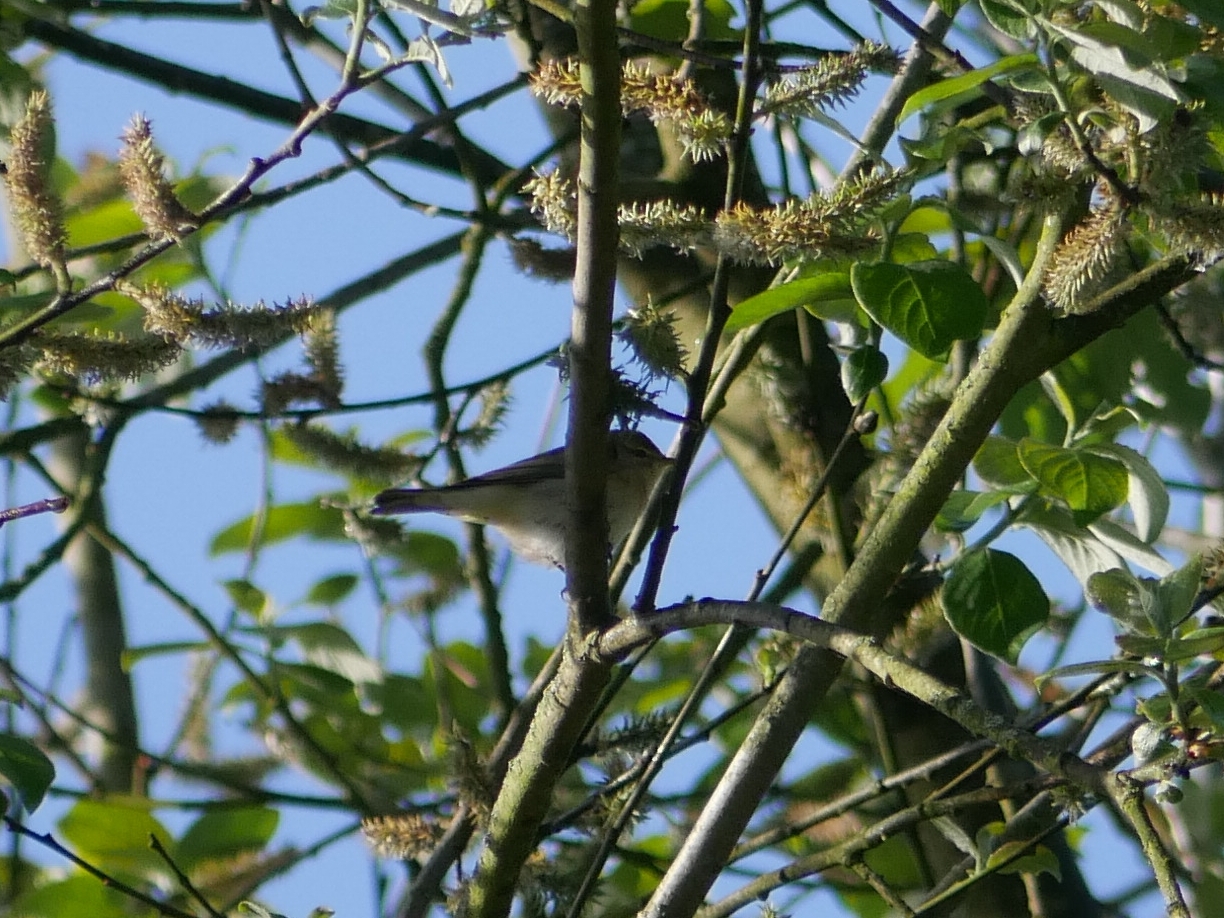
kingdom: Animalia
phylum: Chordata
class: Aves
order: Passeriformes
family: Phylloscopidae
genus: Phylloscopus
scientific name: Phylloscopus trochilus
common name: Willow warbler
